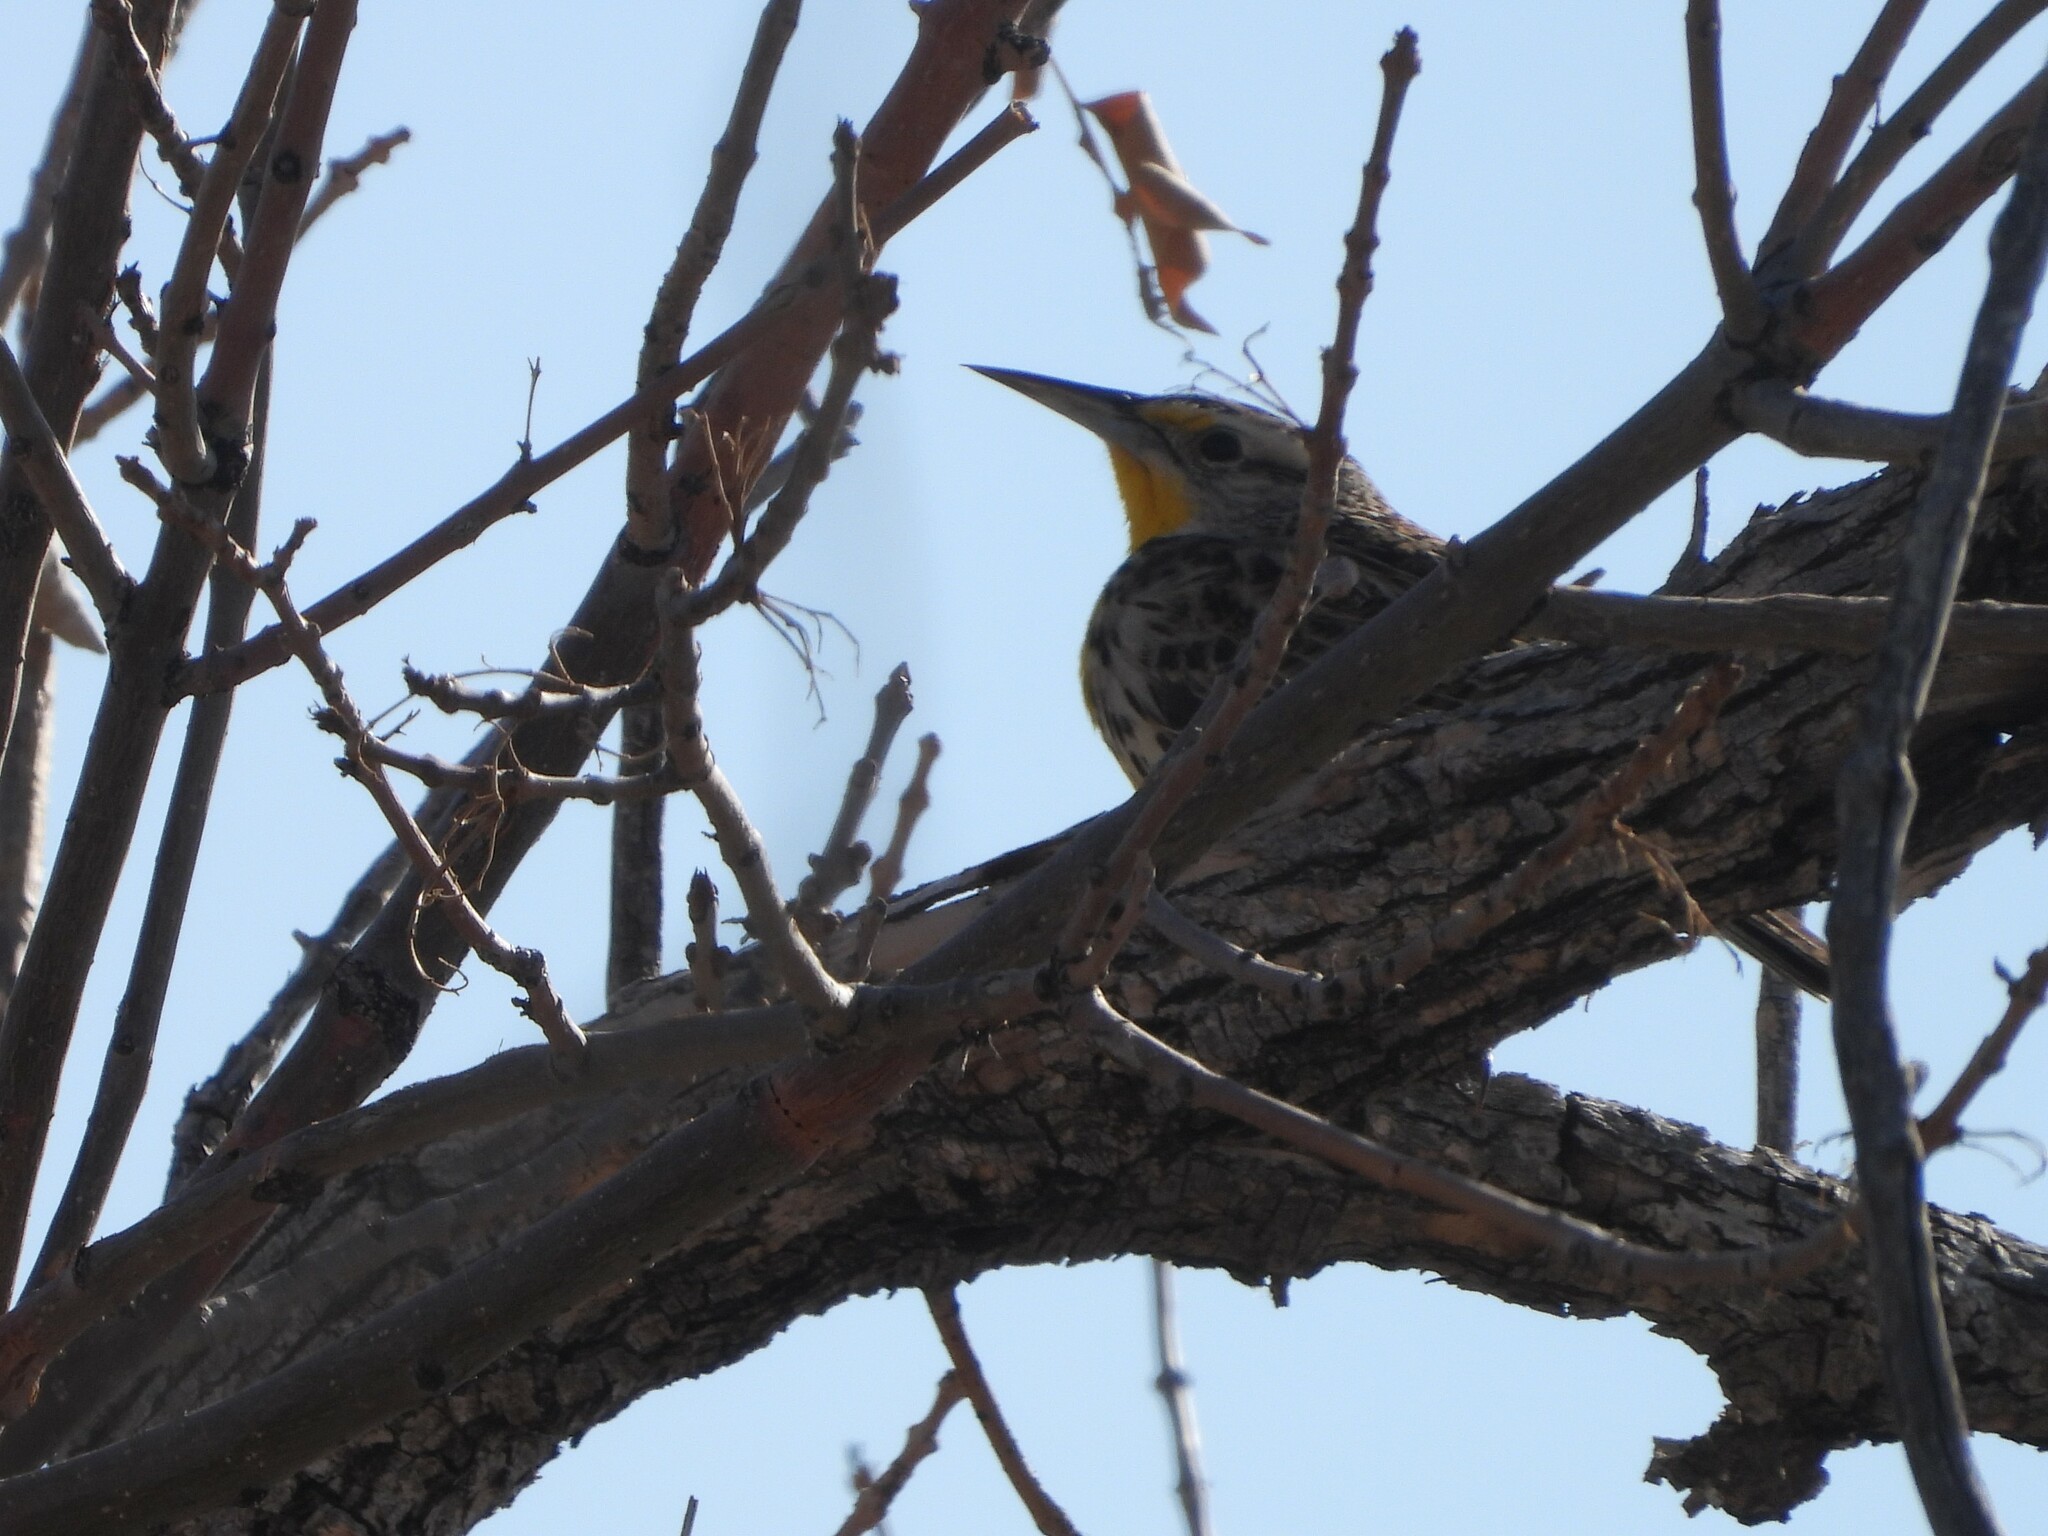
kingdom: Animalia
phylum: Chordata
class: Aves
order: Passeriformes
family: Icteridae
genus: Sturnella
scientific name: Sturnella neglecta
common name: Western meadowlark
